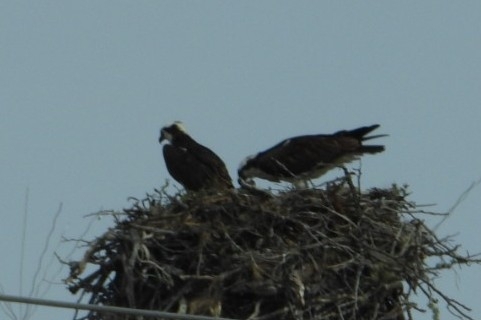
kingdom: Animalia
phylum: Chordata
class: Aves
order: Accipitriformes
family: Pandionidae
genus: Pandion
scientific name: Pandion haliaetus
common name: Osprey
